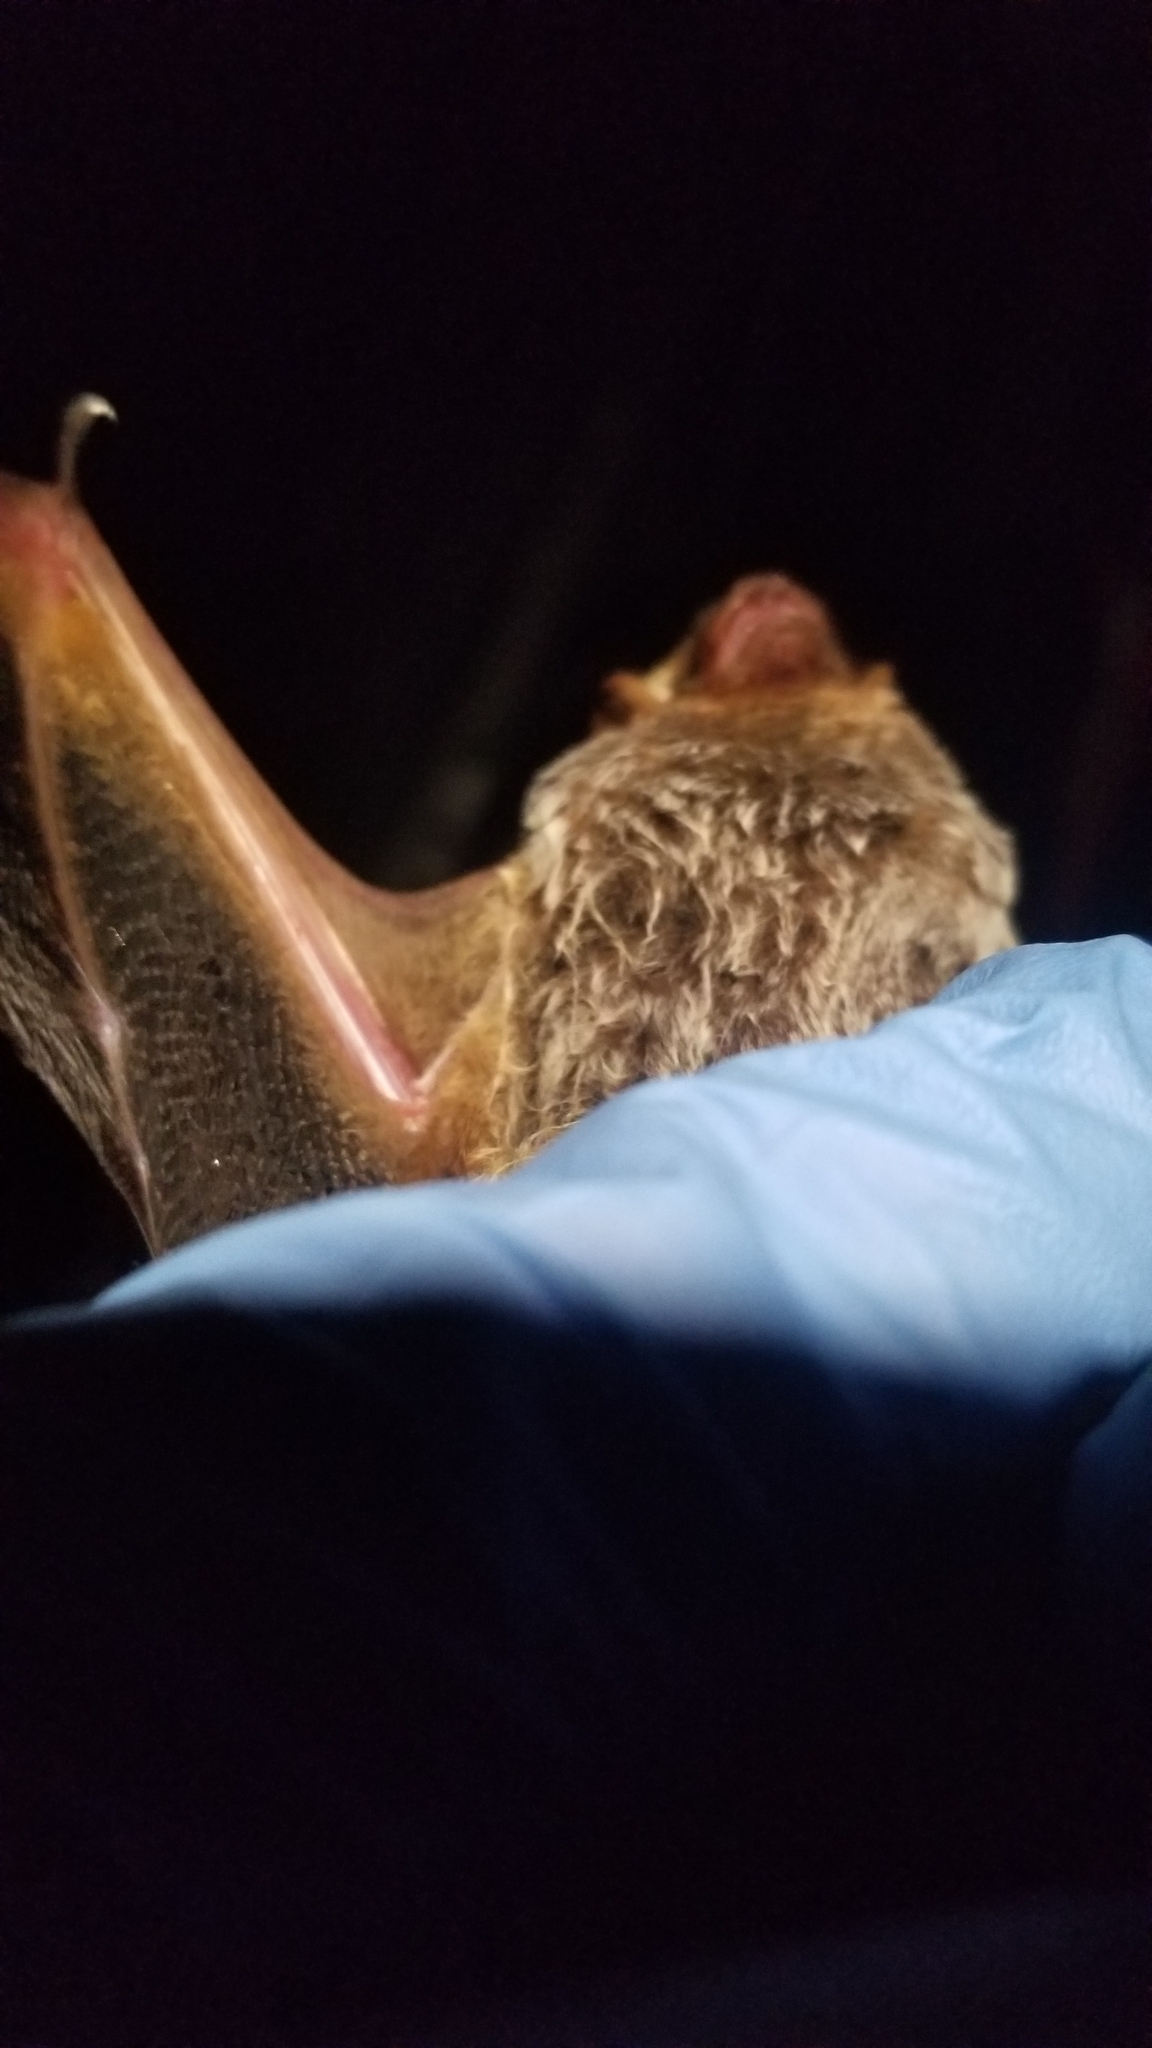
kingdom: Animalia
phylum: Chordata
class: Mammalia
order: Chiroptera
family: Vespertilionidae
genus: Lasiurus
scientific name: Lasiurus seminolus
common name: Seminole bat
